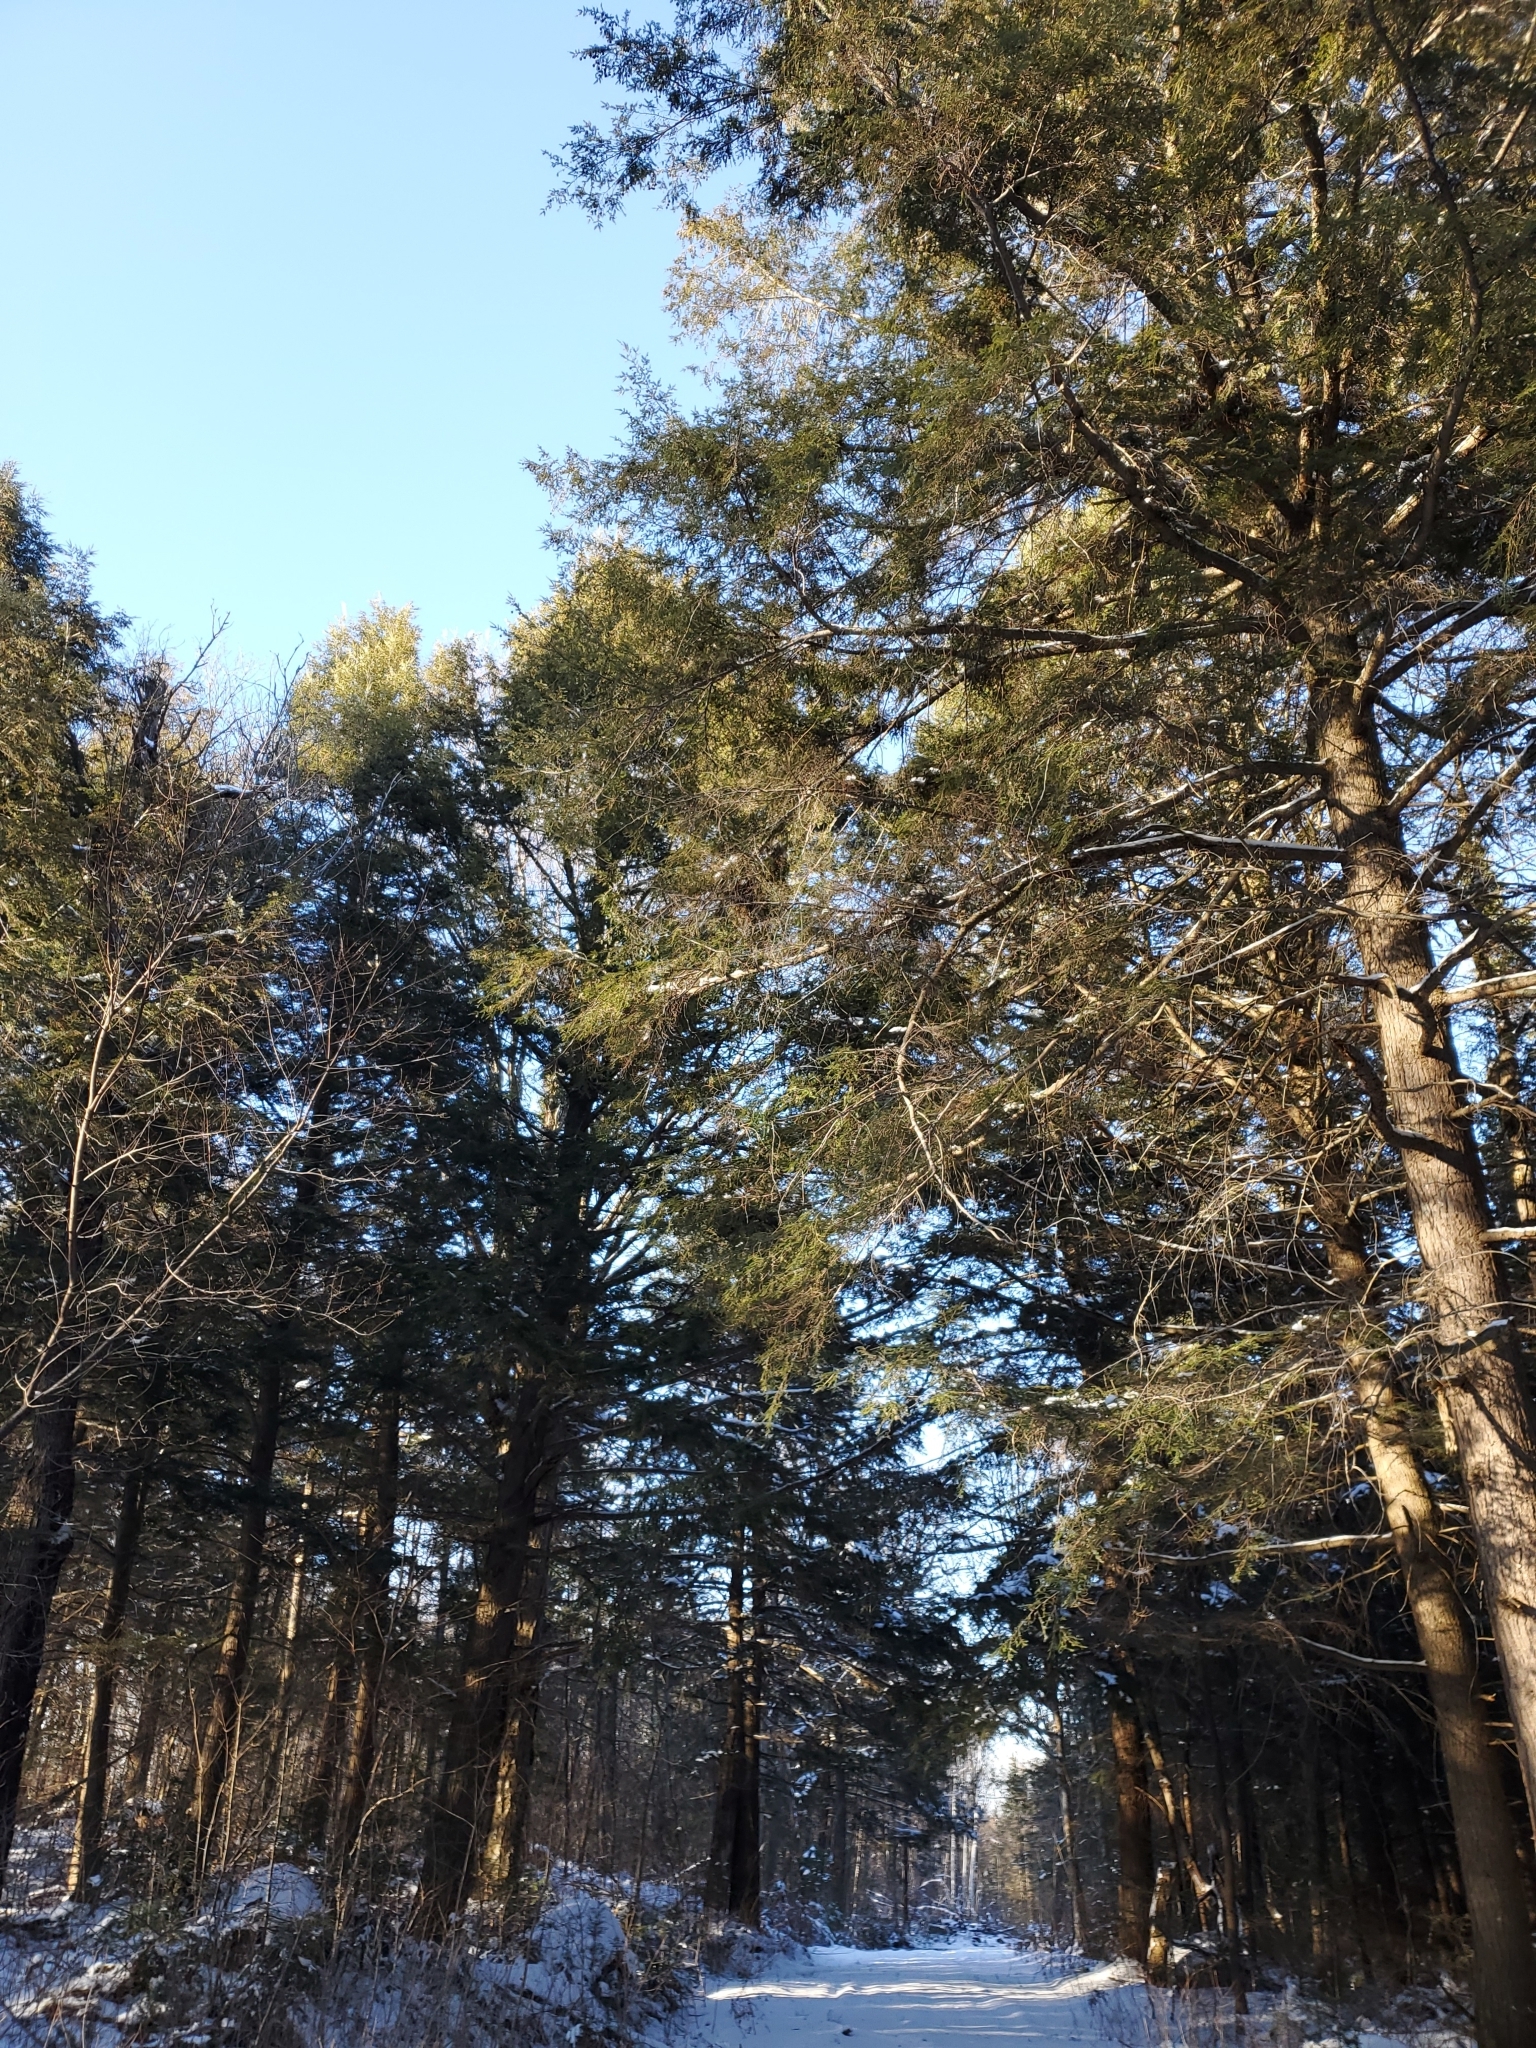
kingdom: Plantae
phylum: Tracheophyta
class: Pinopsida
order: Pinales
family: Pinaceae
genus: Tsuga
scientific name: Tsuga canadensis
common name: Eastern hemlock
